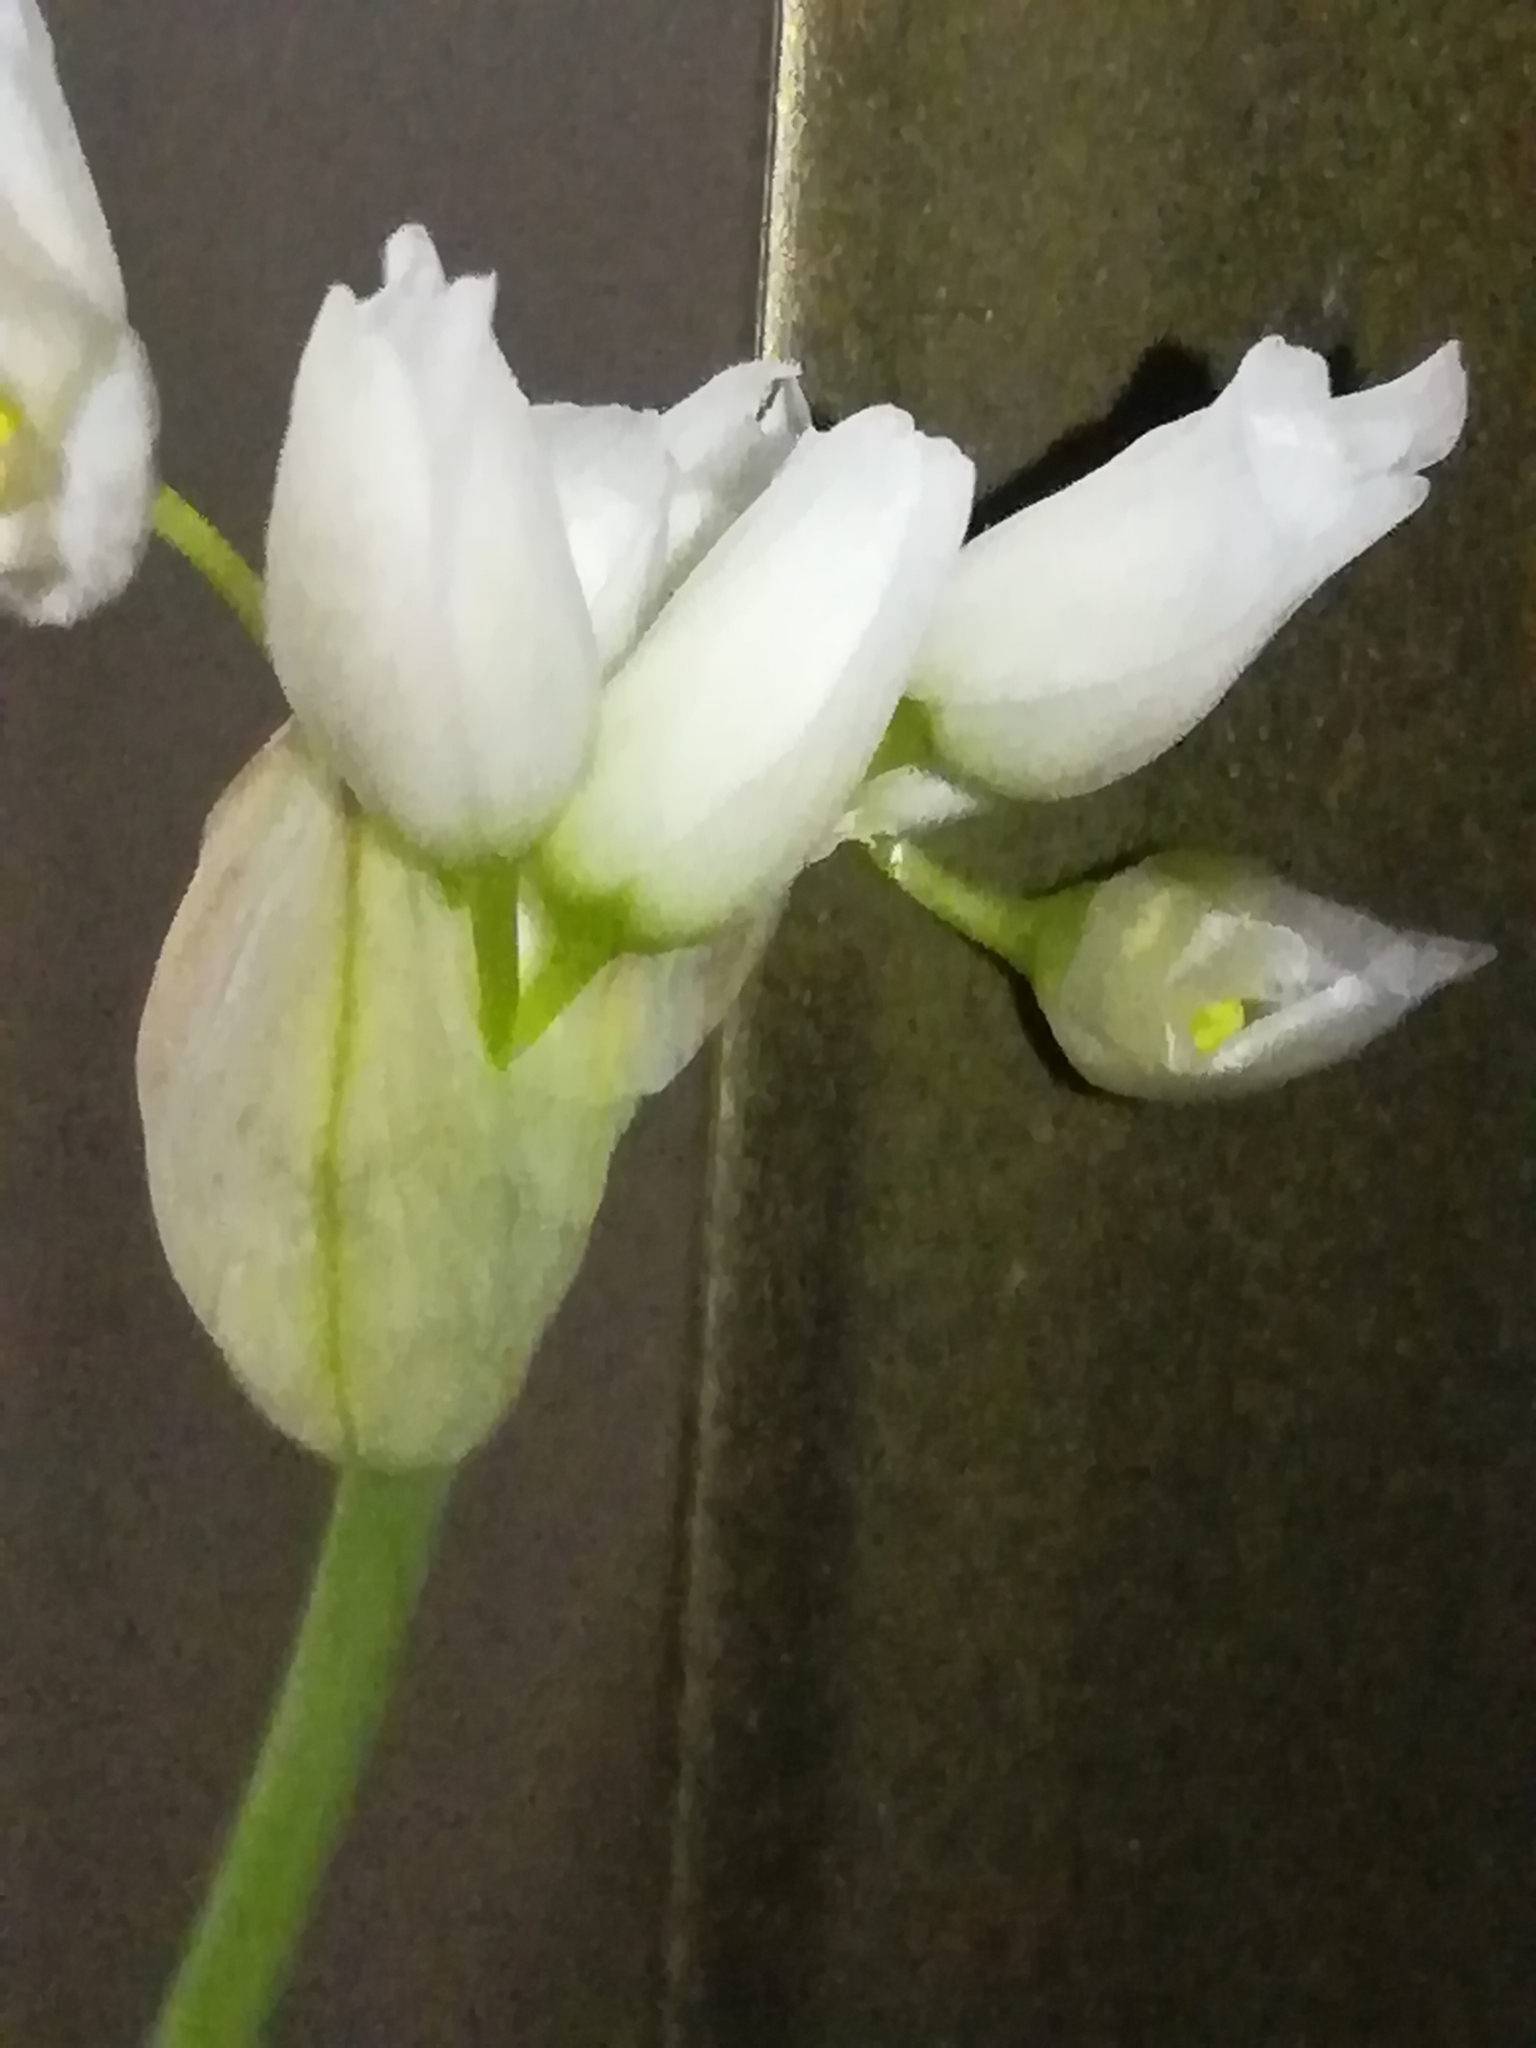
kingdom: Plantae
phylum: Tracheophyta
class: Liliopsida
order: Asparagales
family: Amaryllidaceae
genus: Allium
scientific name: Allium roseum
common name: Rosy garlic
